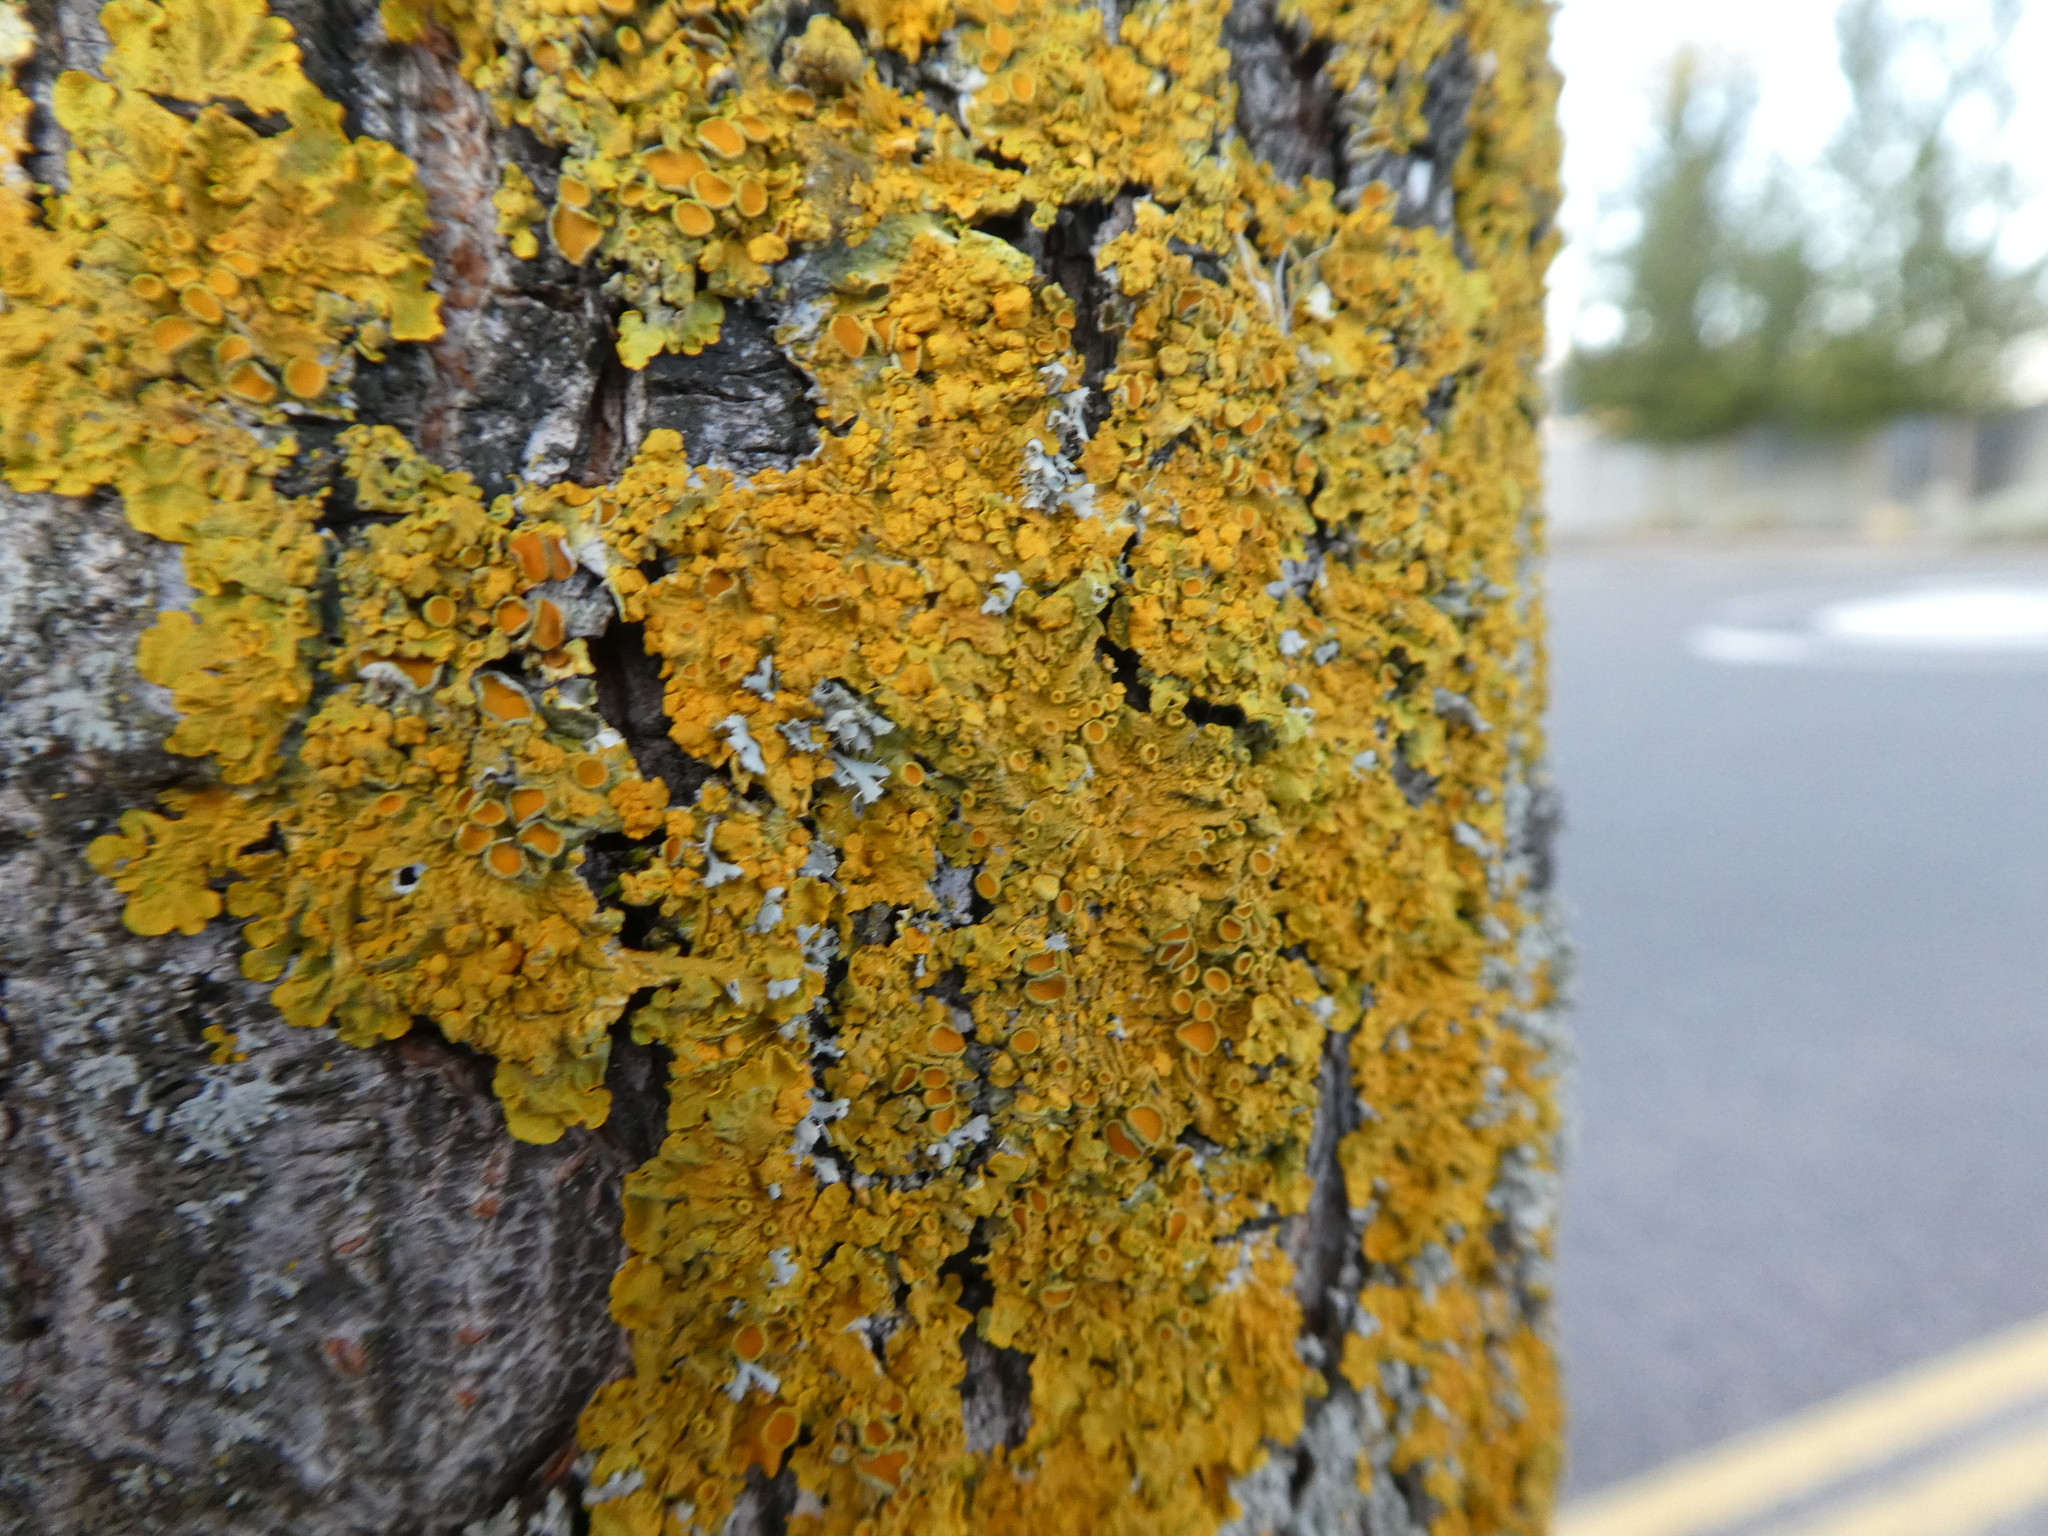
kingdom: Fungi
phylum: Ascomycota
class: Lecanoromycetes
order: Teloschistales
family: Teloschistaceae
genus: Xanthoria
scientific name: Xanthoria parietina
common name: Common orange lichen
